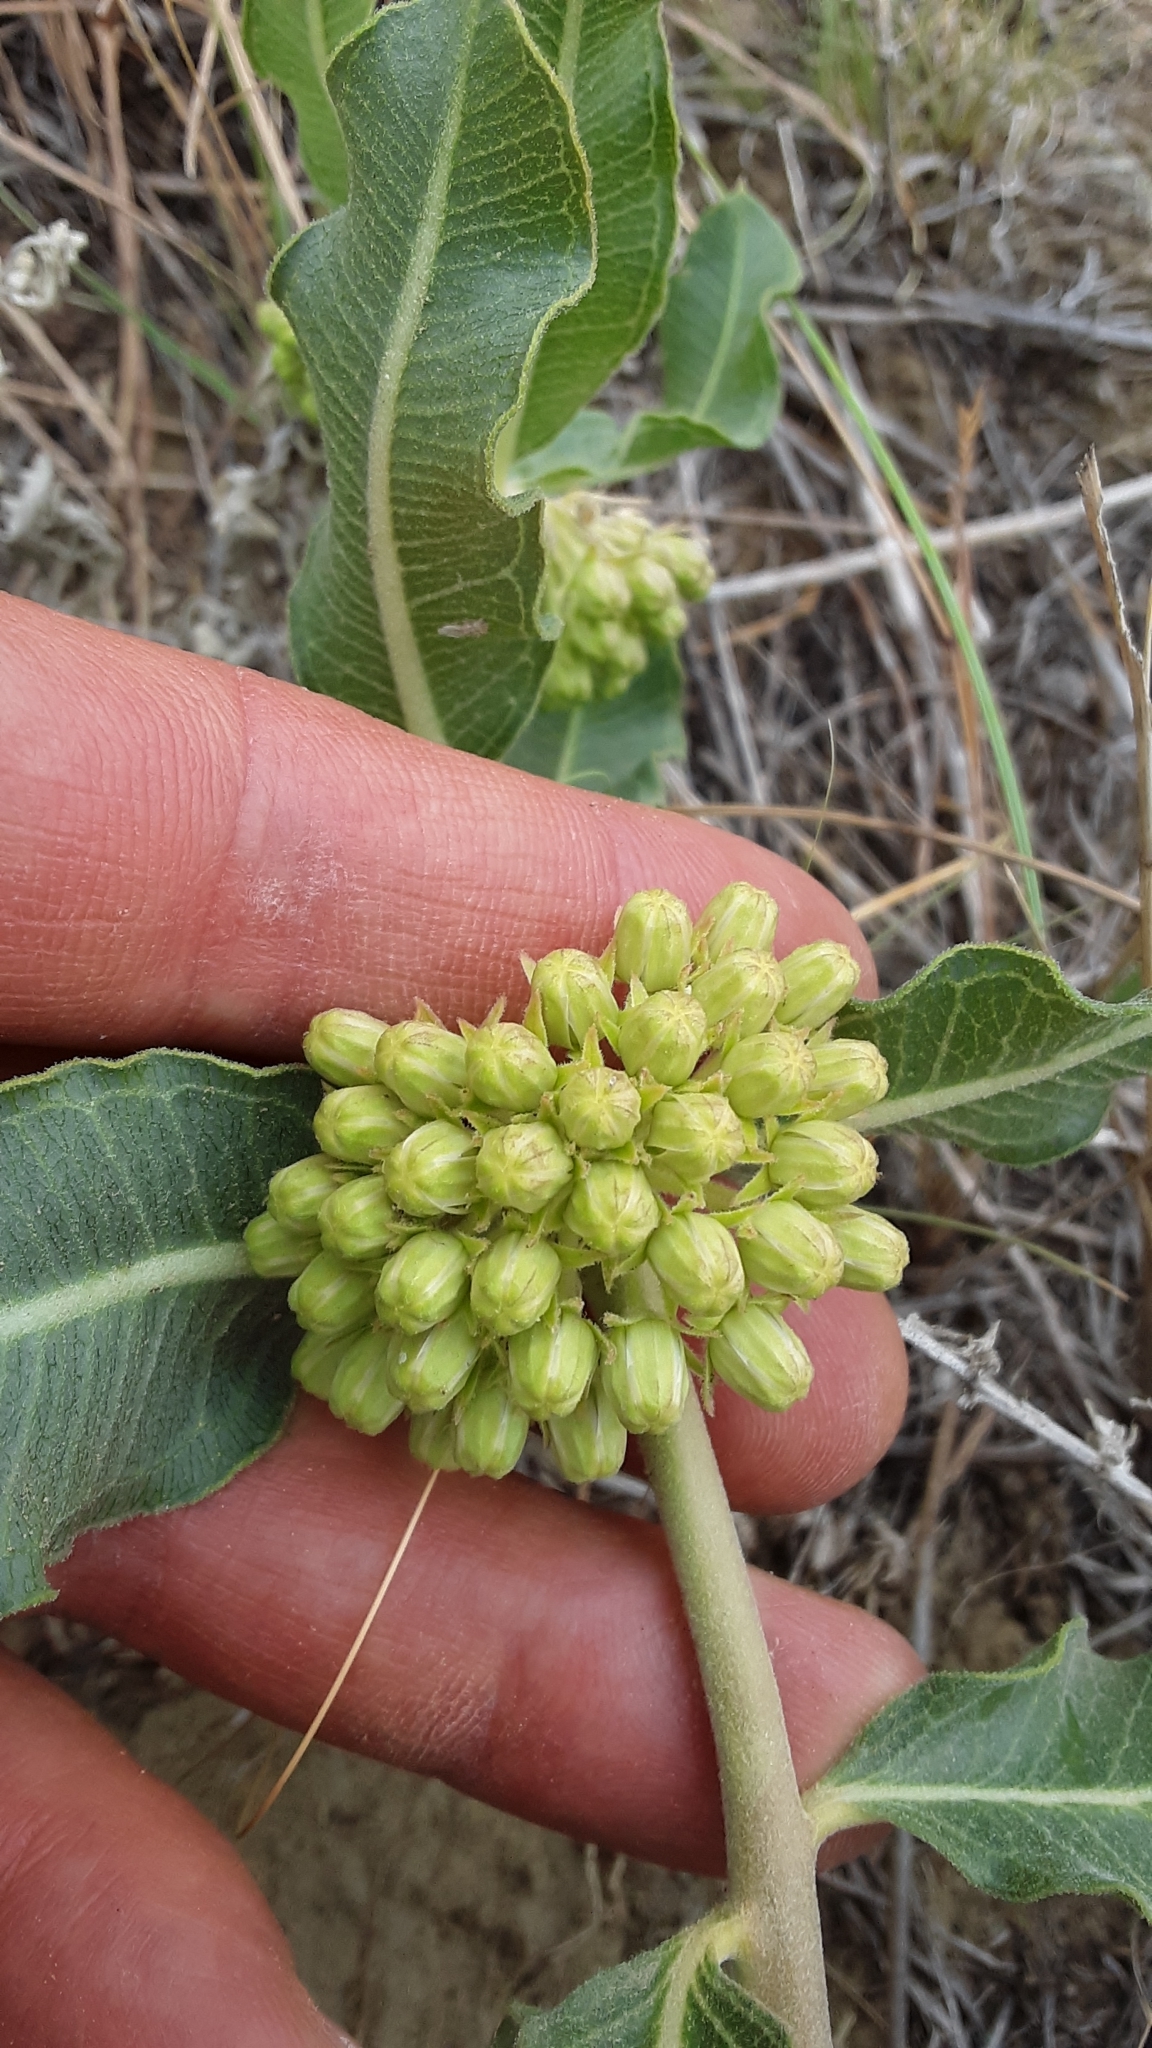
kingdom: Plantae
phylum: Tracheophyta
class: Magnoliopsida
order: Gentianales
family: Apocynaceae
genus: Asclepias
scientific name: Asclepias viridiflora
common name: Green comet milkweed
